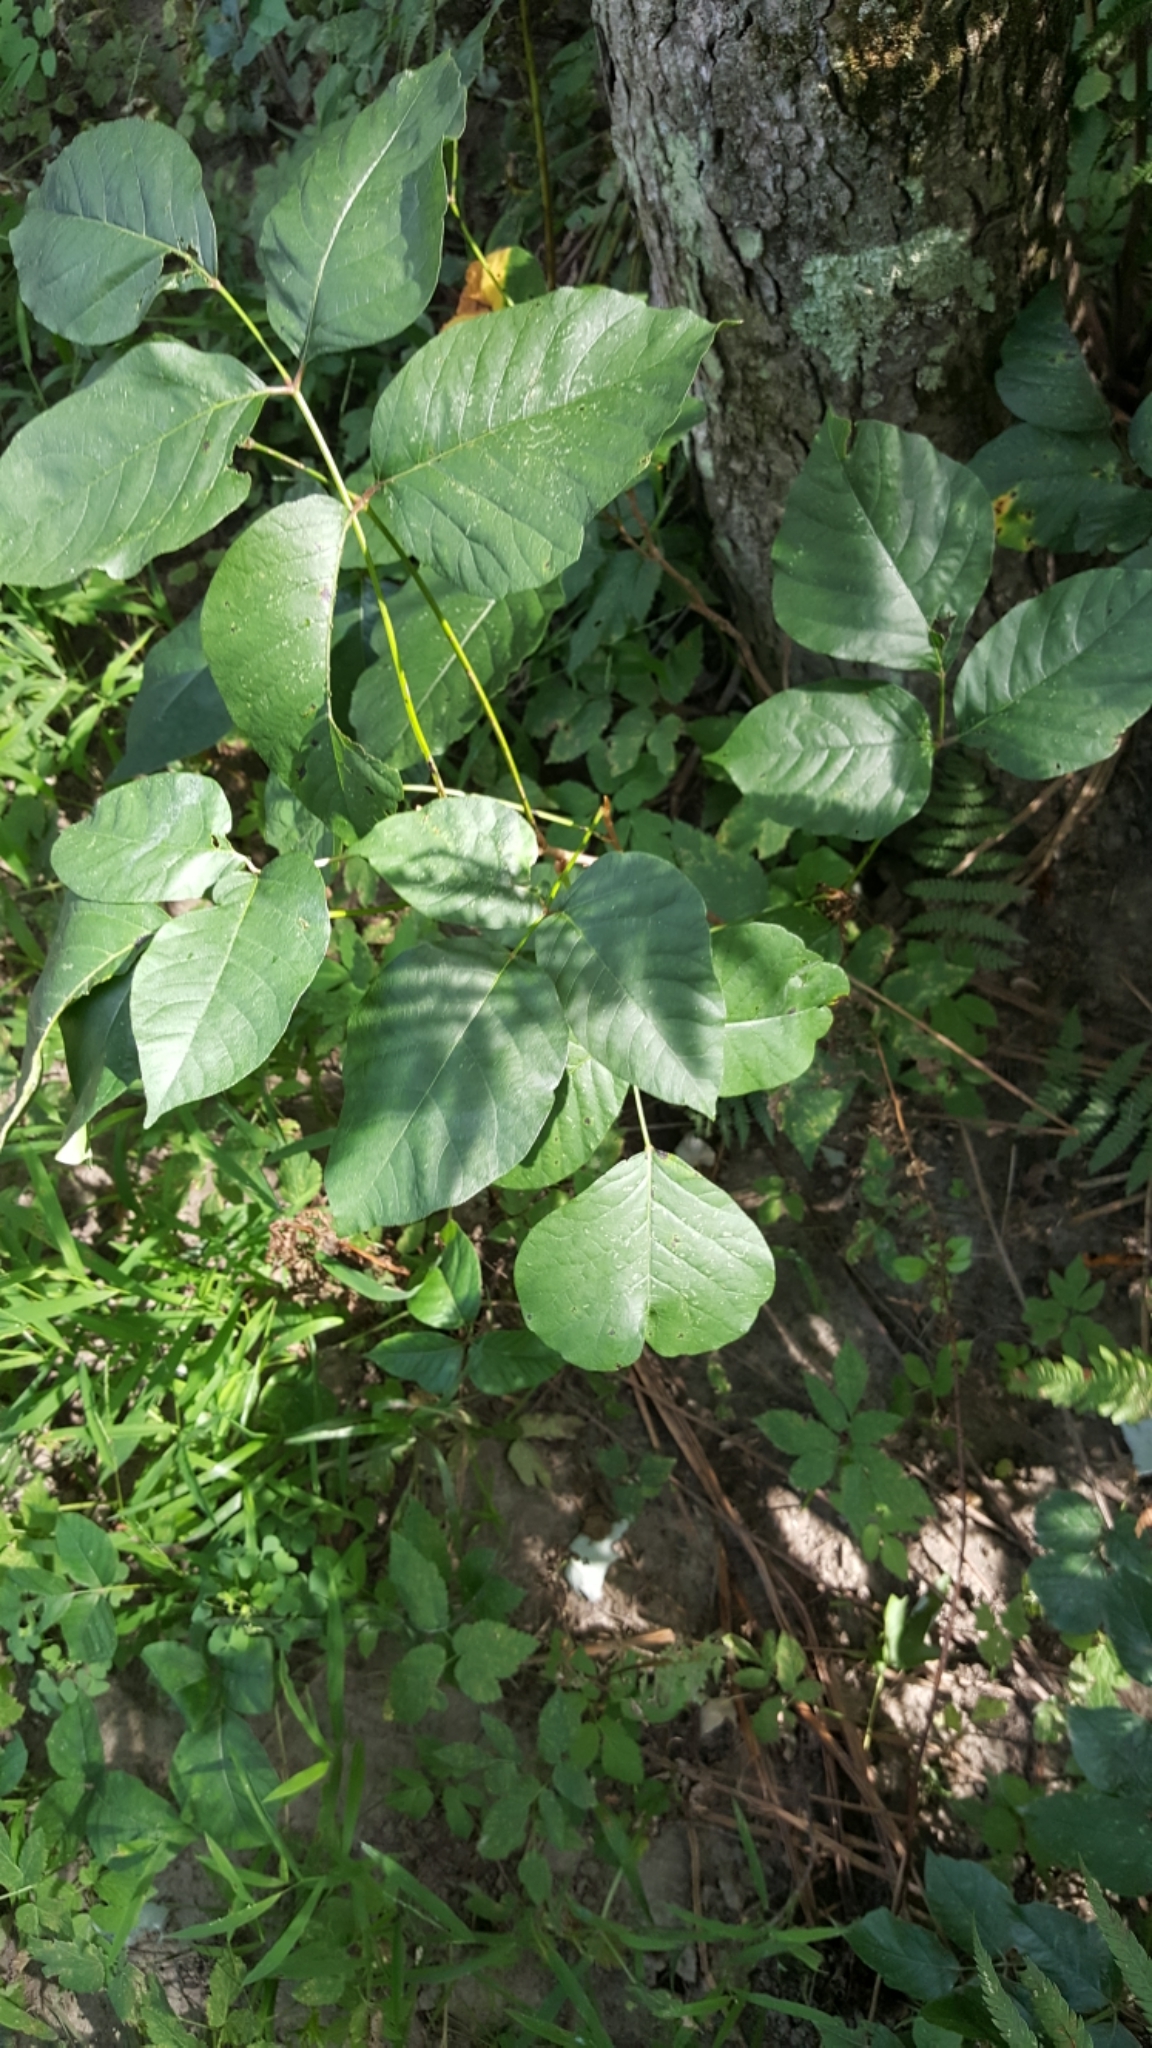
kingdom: Plantae
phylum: Tracheophyta
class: Magnoliopsida
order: Sapindales
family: Anacardiaceae
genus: Toxicodendron
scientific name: Toxicodendron radicans
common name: Poison ivy
